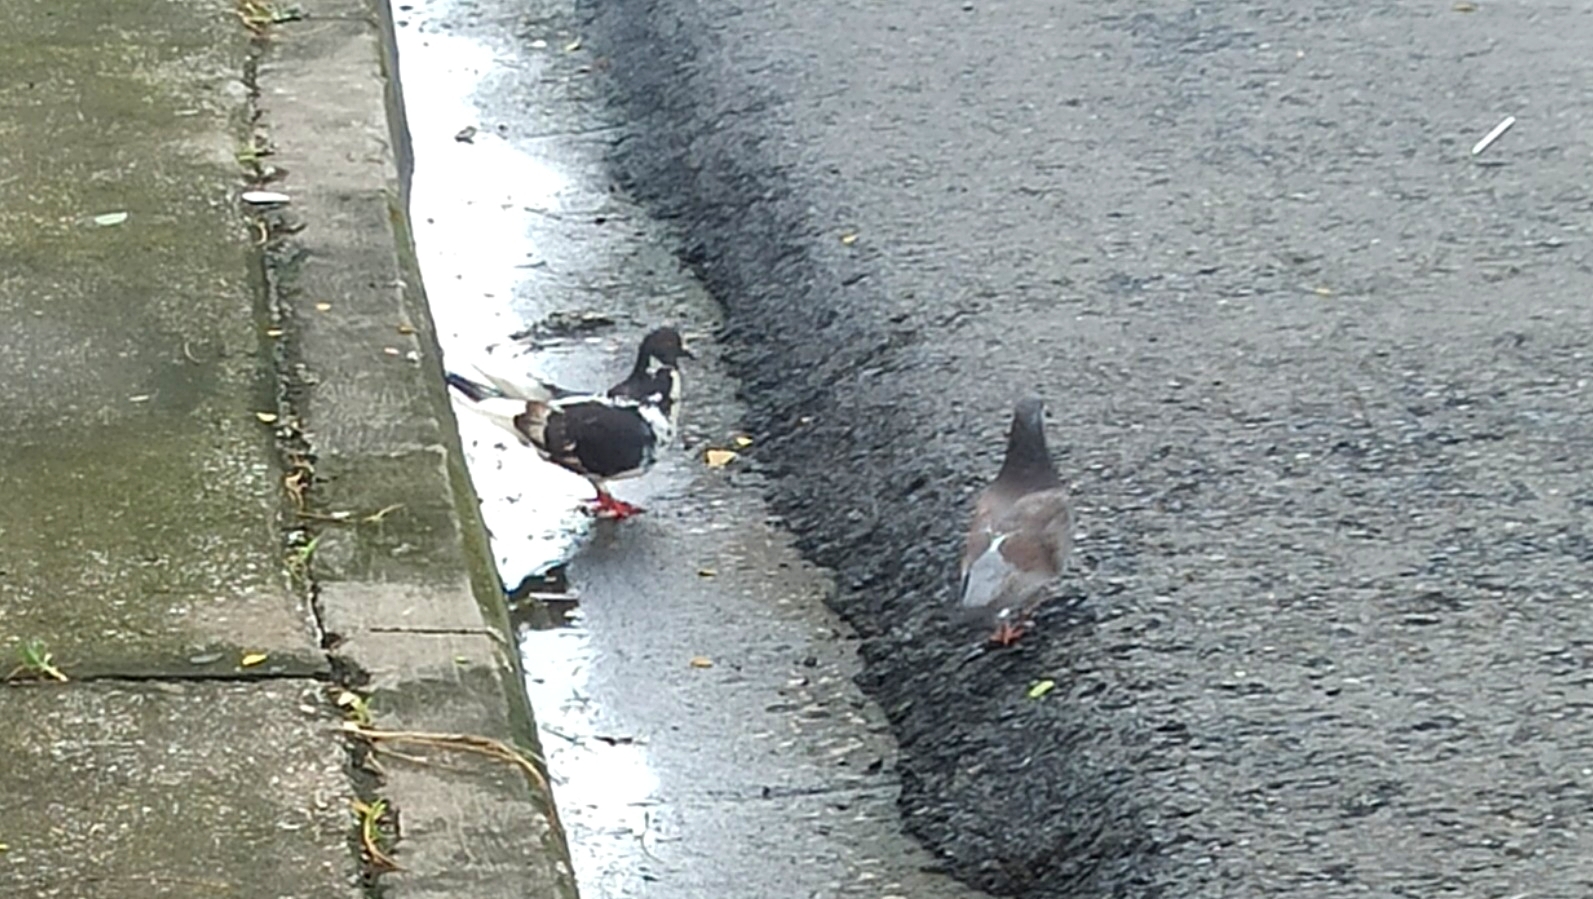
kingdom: Animalia
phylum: Chordata
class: Aves
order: Columbiformes
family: Columbidae
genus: Columba
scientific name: Columba livia
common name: Rock pigeon
